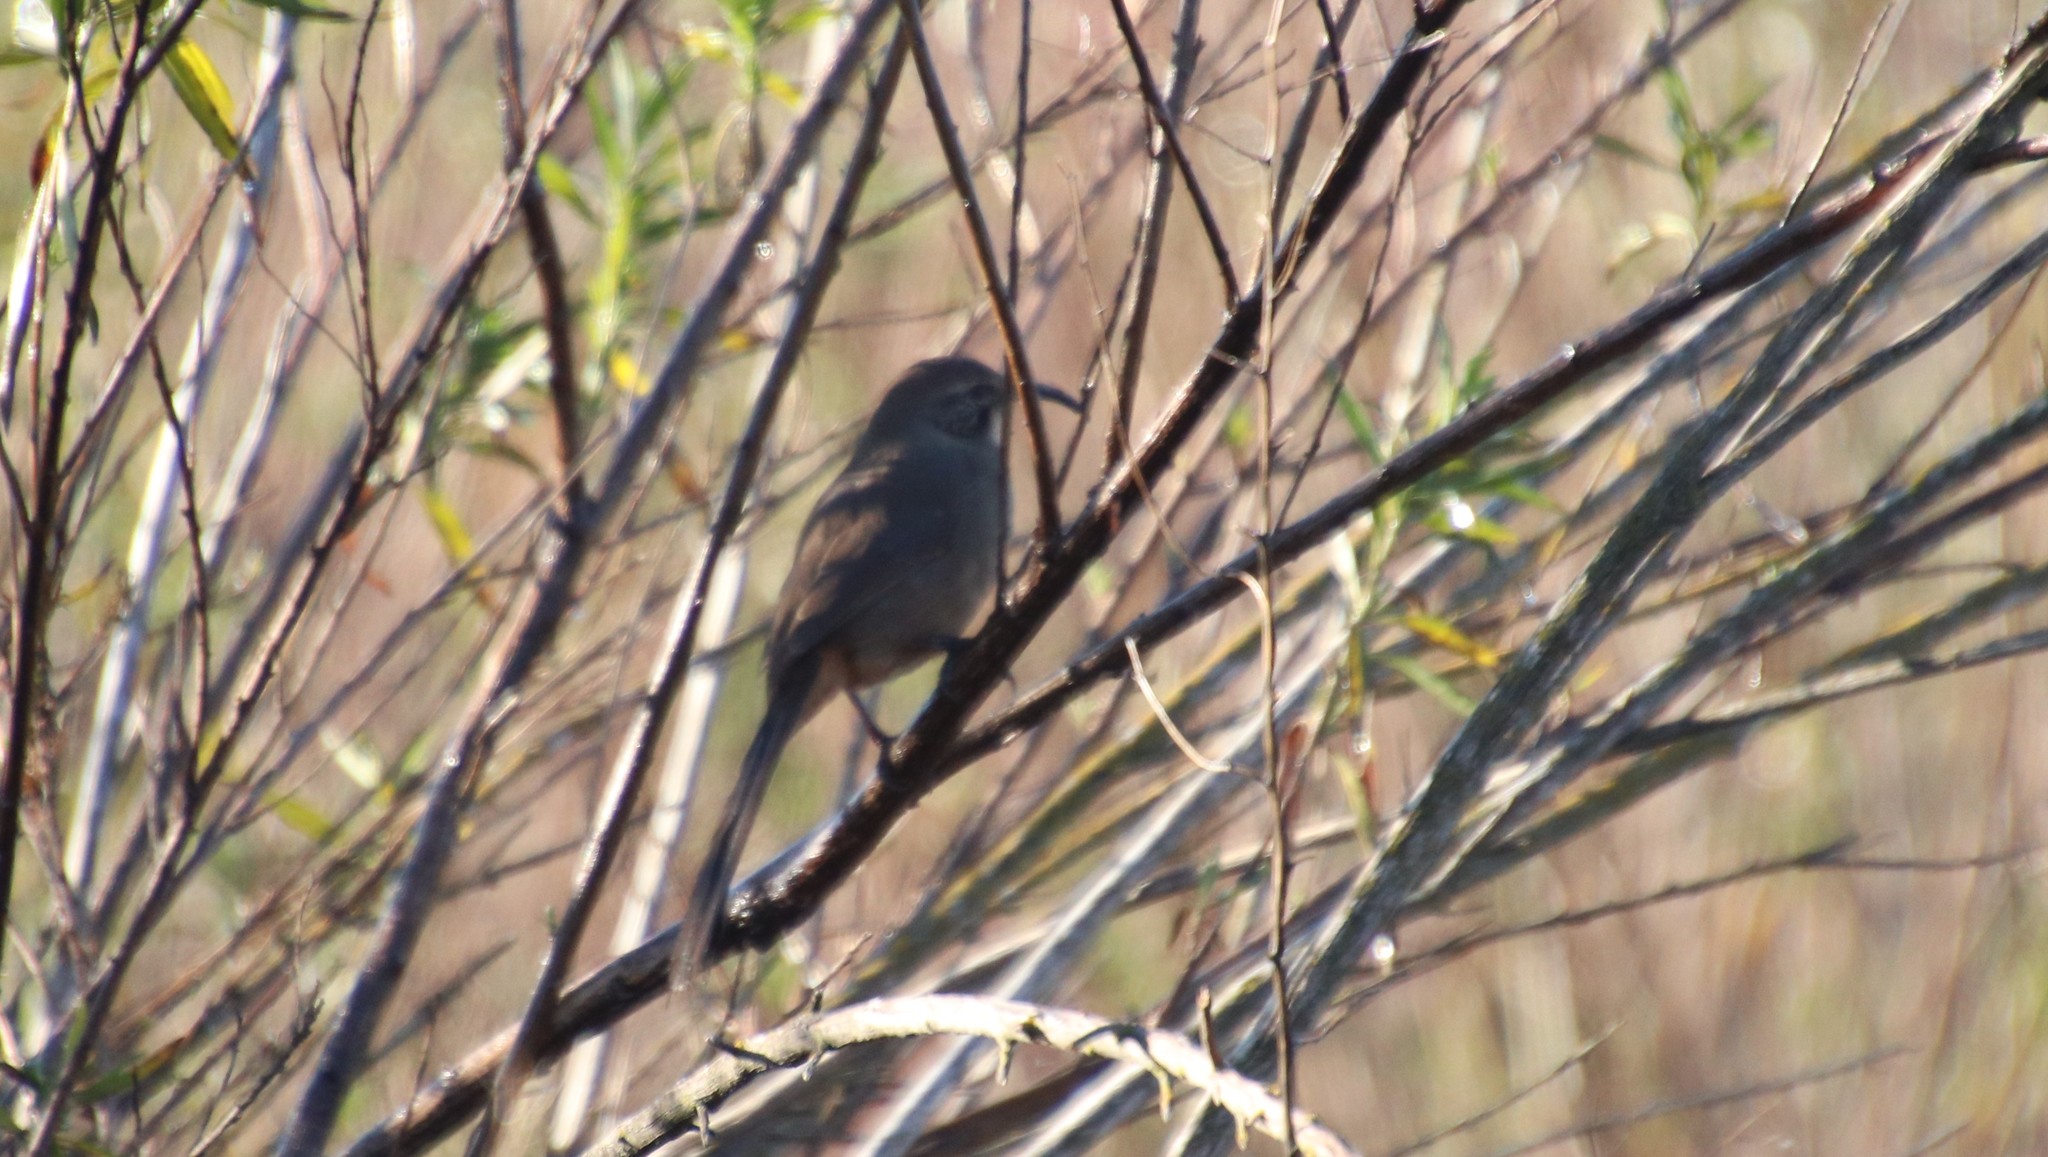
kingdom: Animalia
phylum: Chordata
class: Aves
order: Passeriformes
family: Mimidae
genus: Toxostoma
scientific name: Toxostoma redivivum
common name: California thrasher
